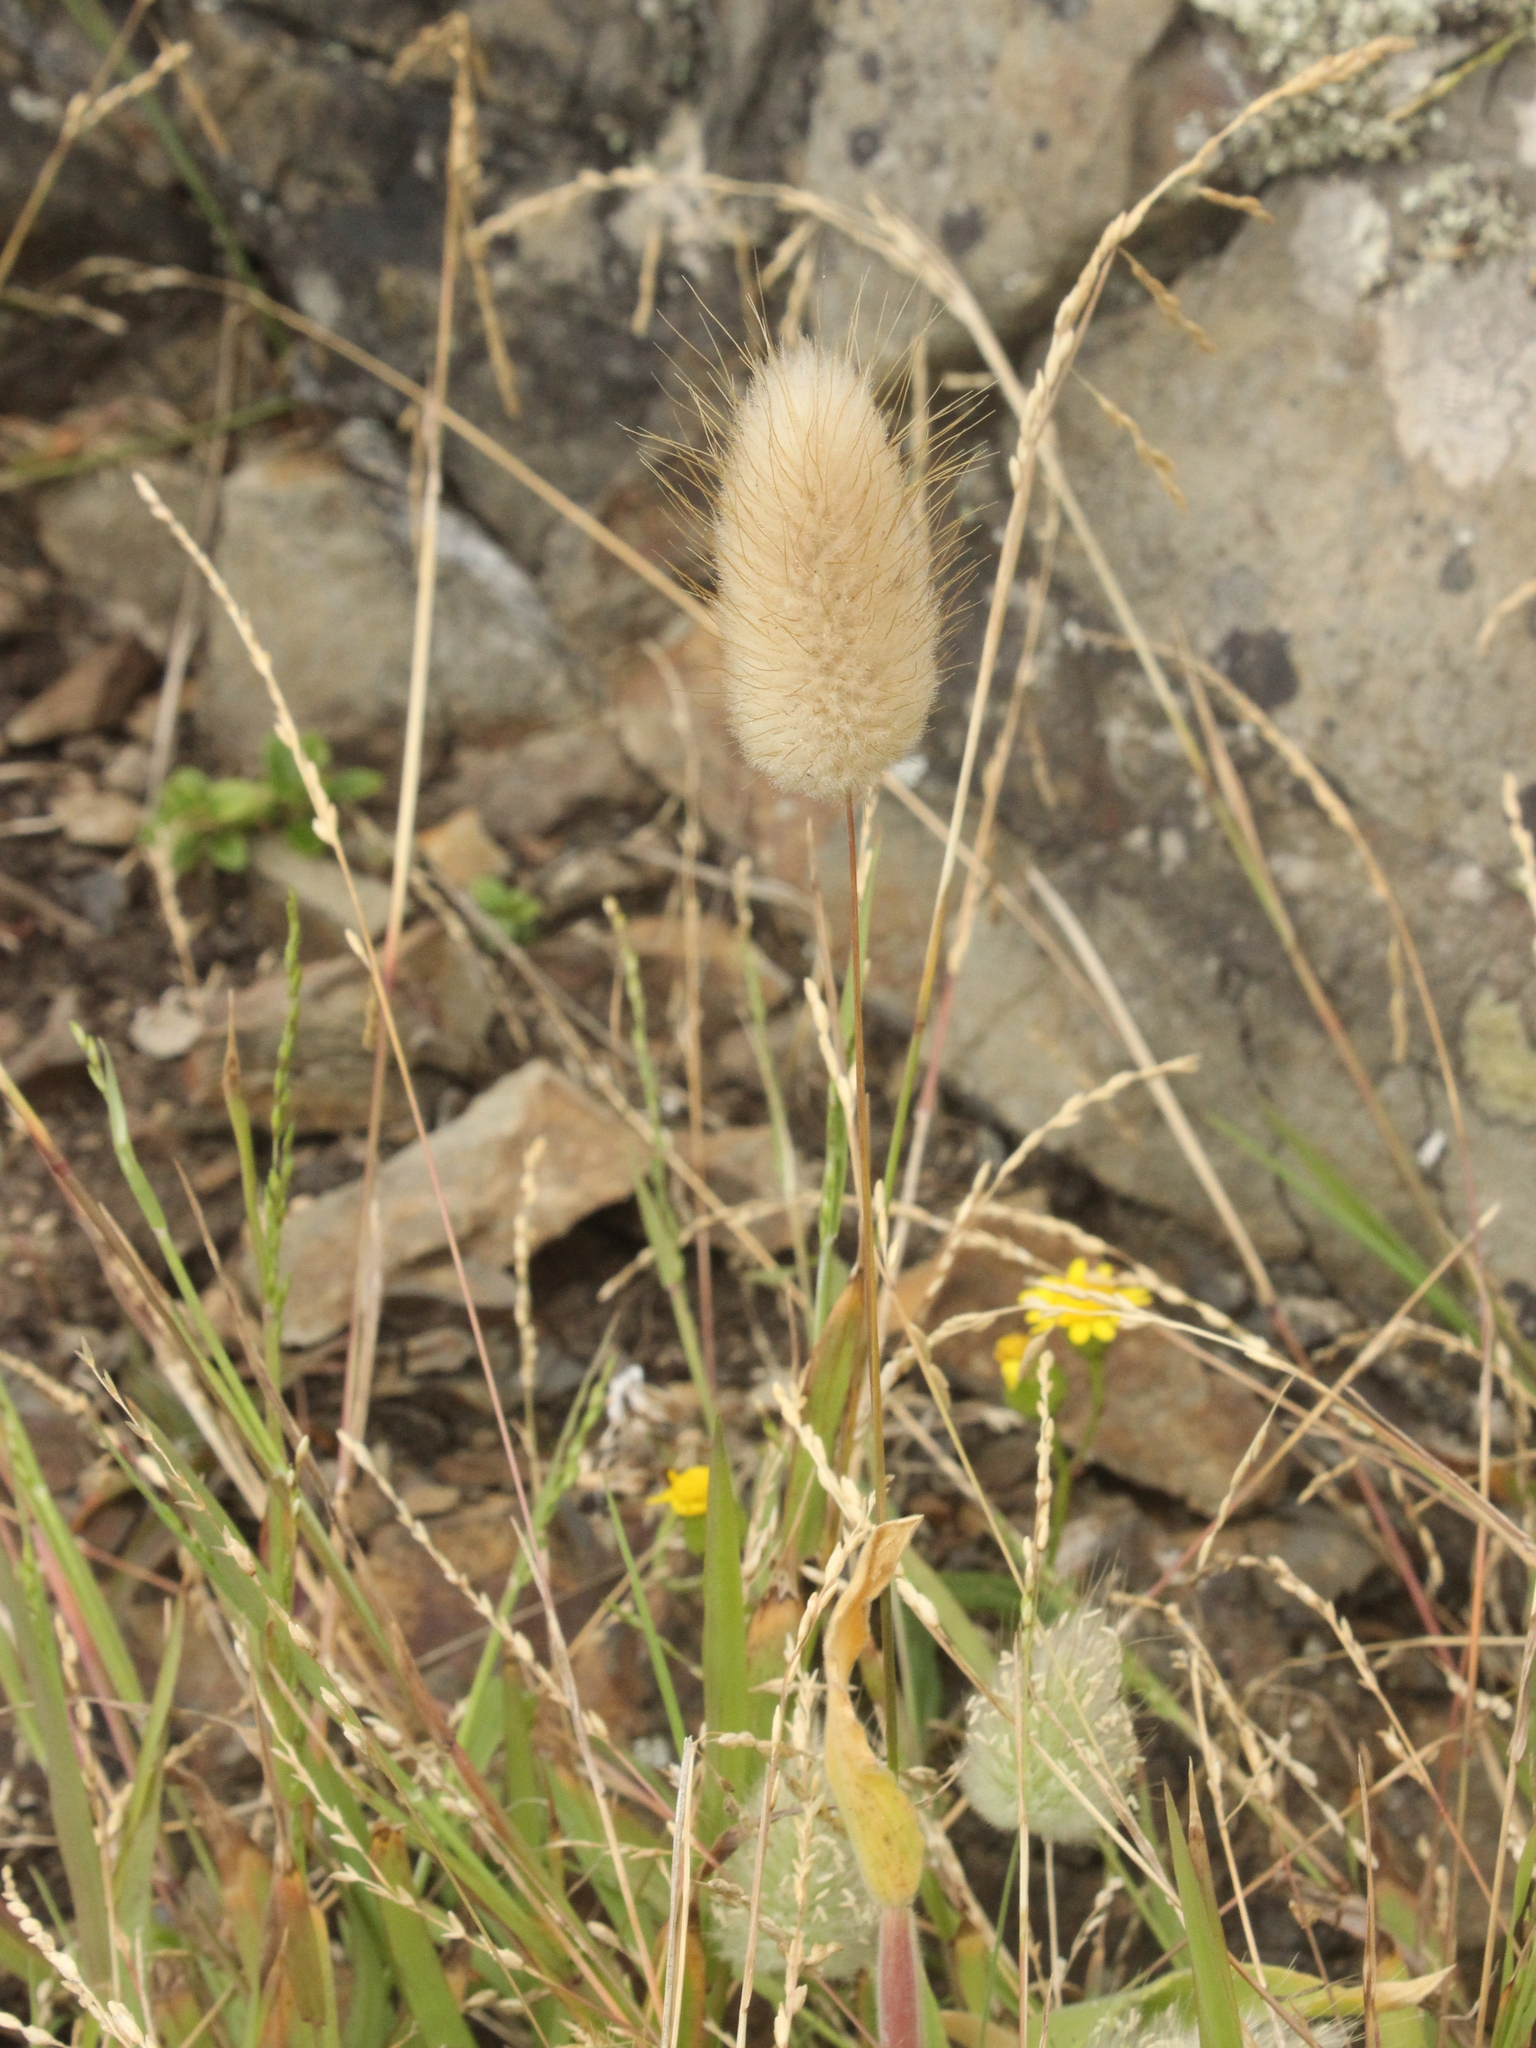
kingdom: Plantae
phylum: Tracheophyta
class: Liliopsida
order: Poales
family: Poaceae
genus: Lagurus
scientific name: Lagurus ovatus
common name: Hare's-tail
